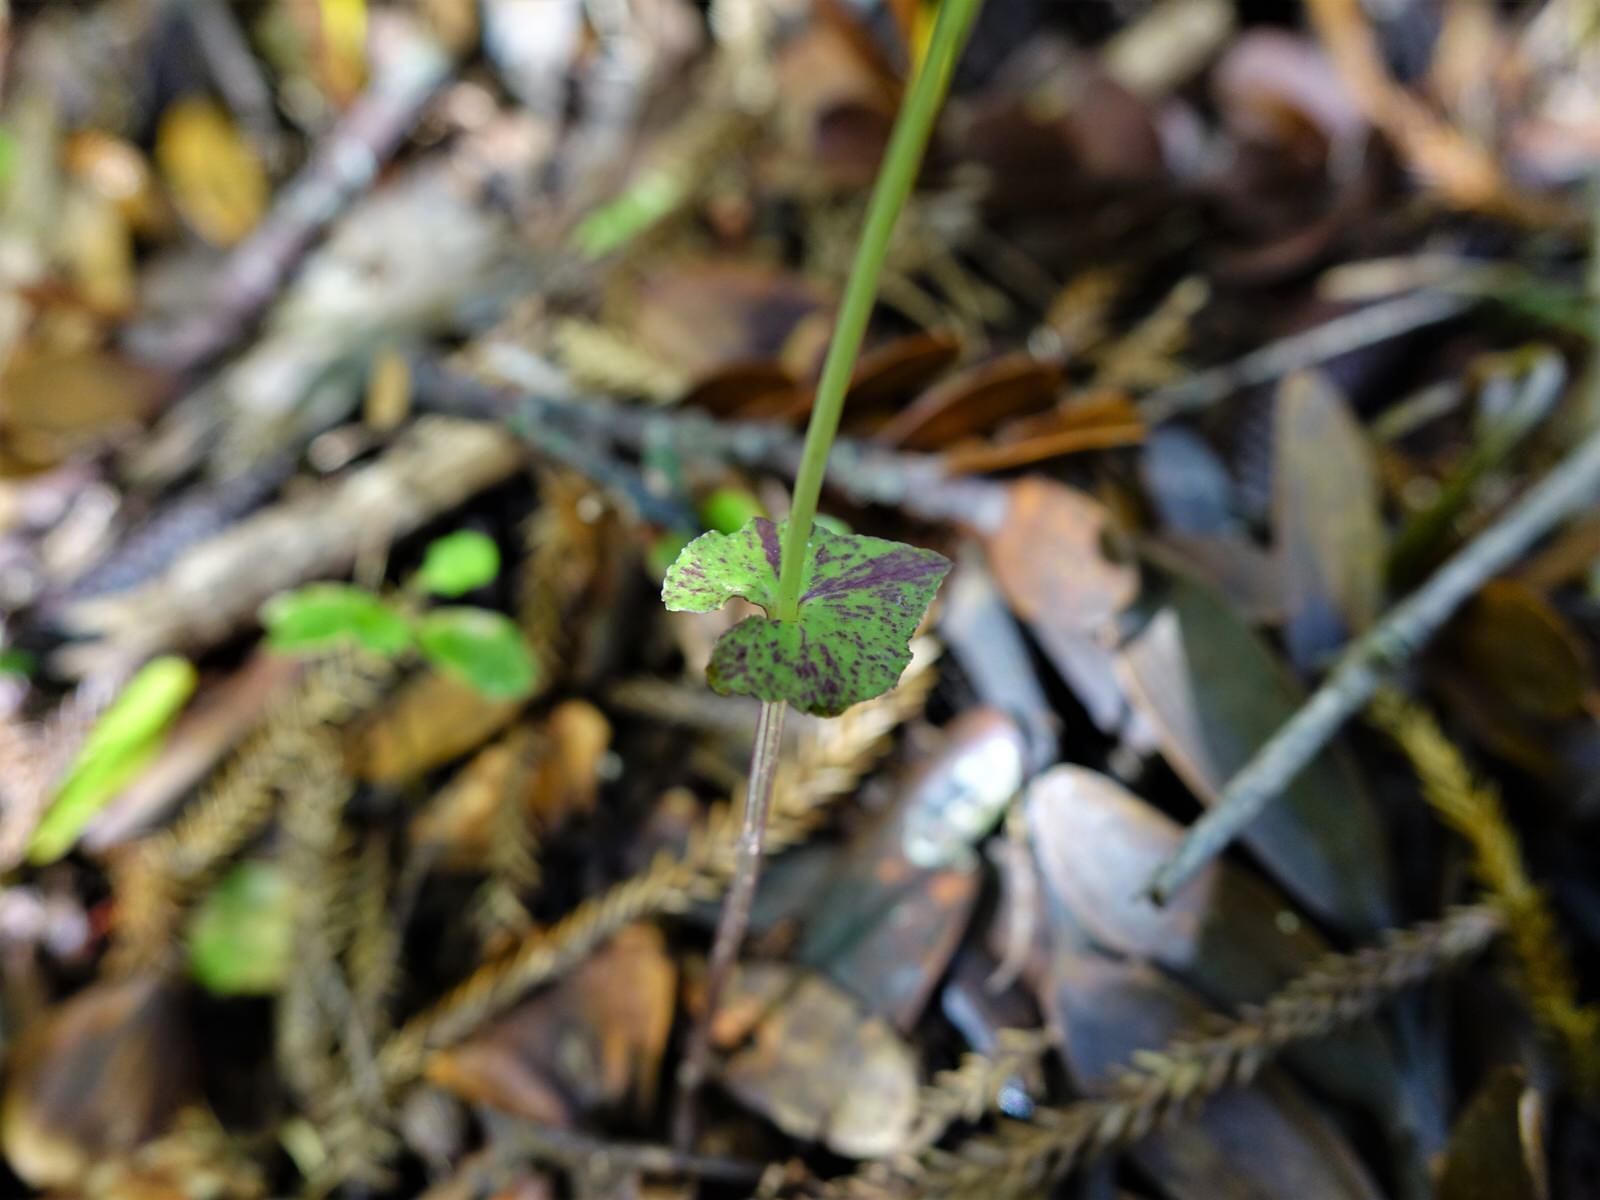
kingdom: Plantae
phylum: Tracheophyta
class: Liliopsida
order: Asparagales
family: Orchidaceae
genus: Acianthus
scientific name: Acianthus sinclairii
